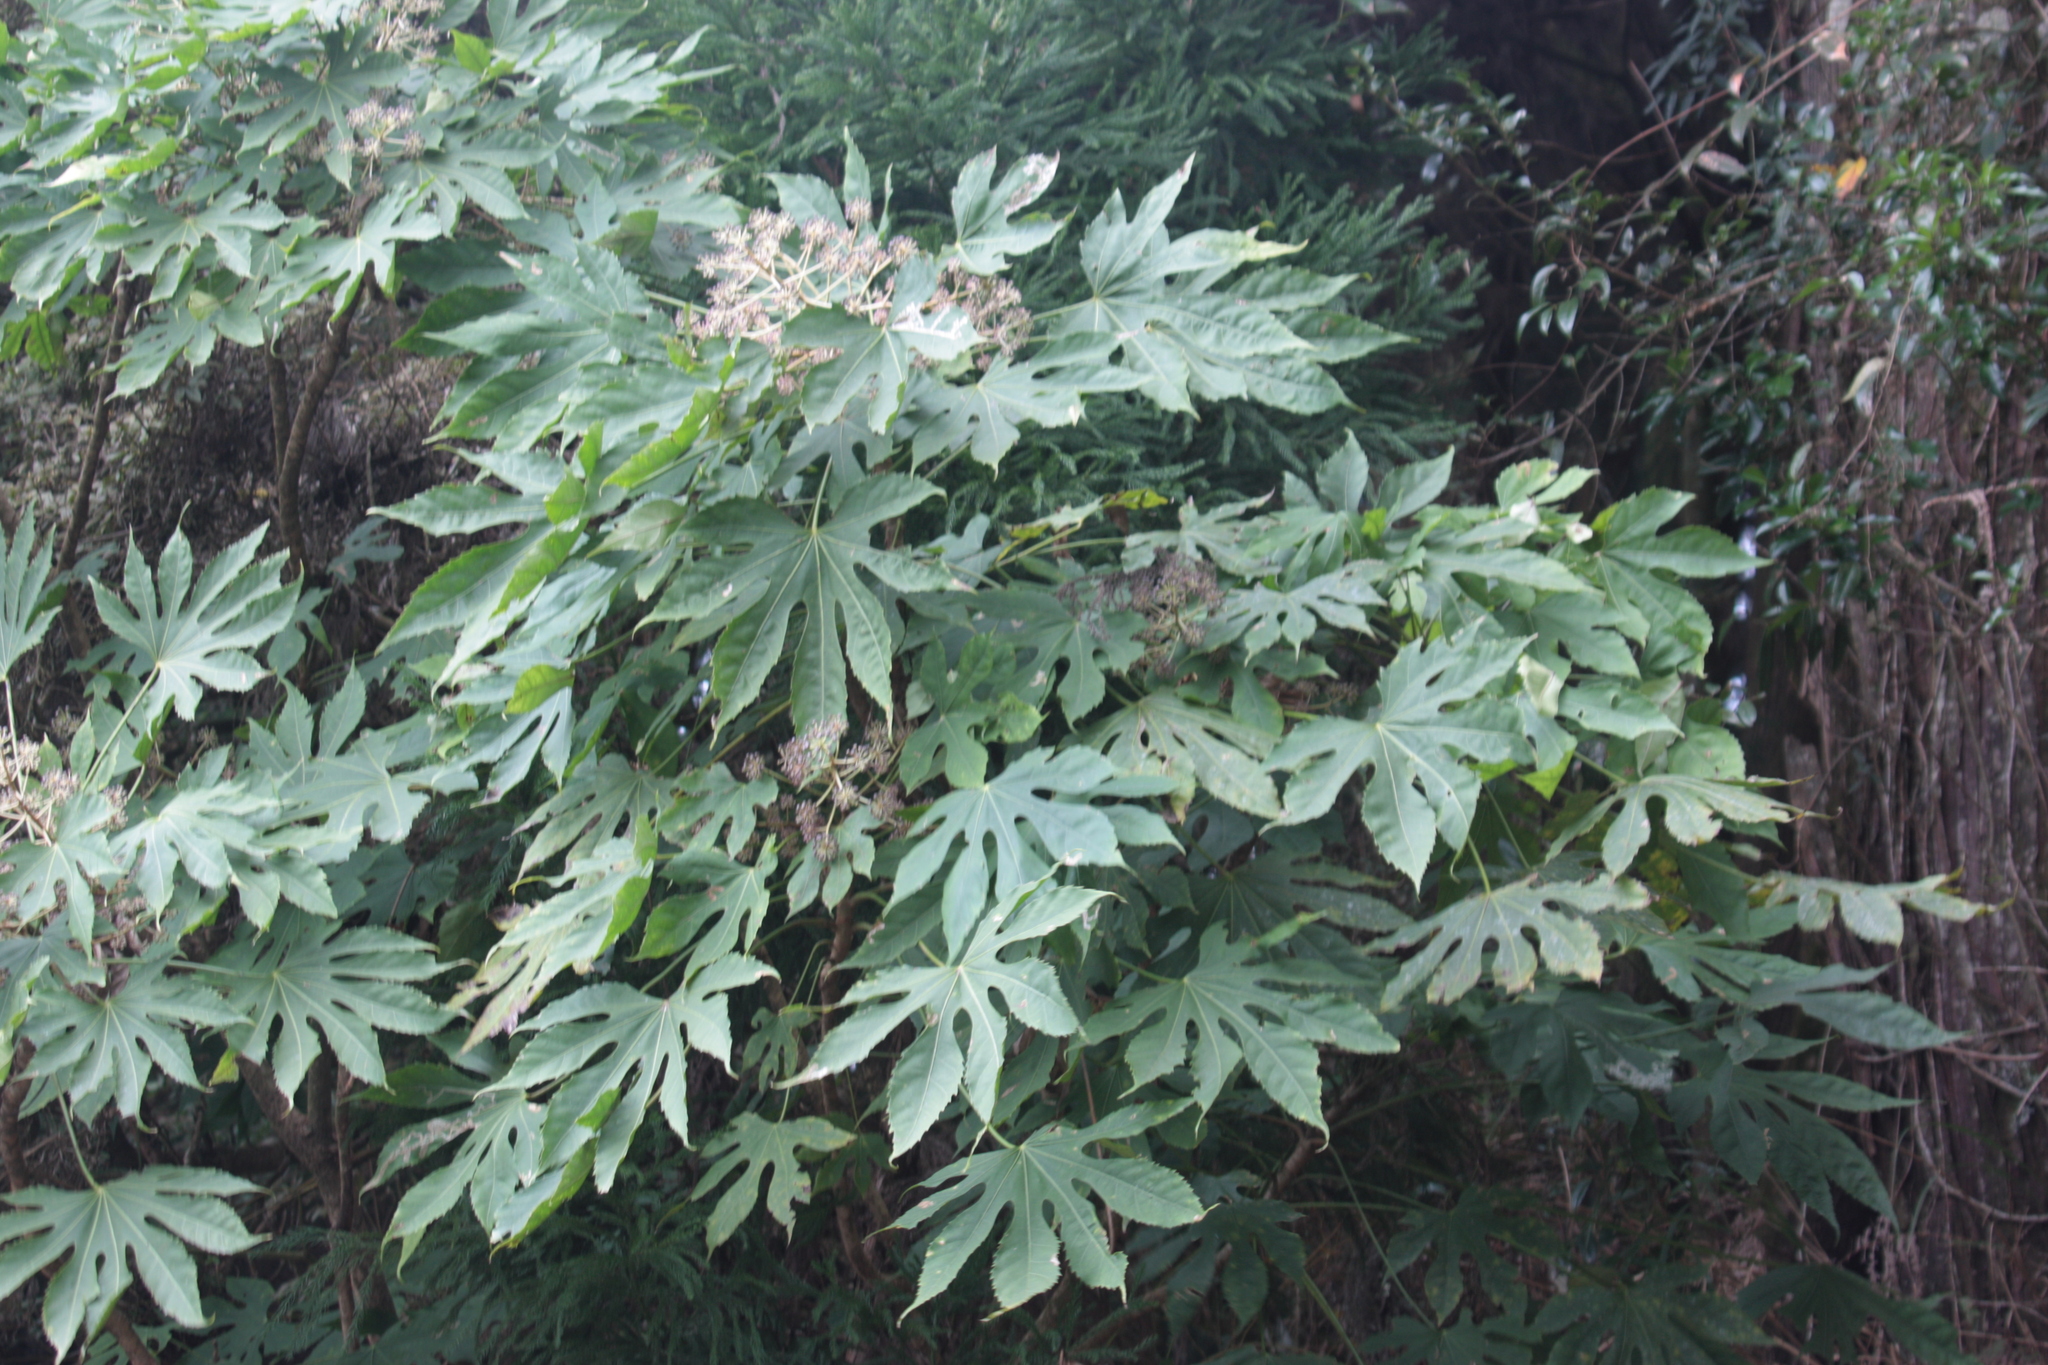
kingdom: Plantae
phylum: Tracheophyta
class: Magnoliopsida
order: Apiales
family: Araliaceae
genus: Fatsia
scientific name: Fatsia polycarpa
